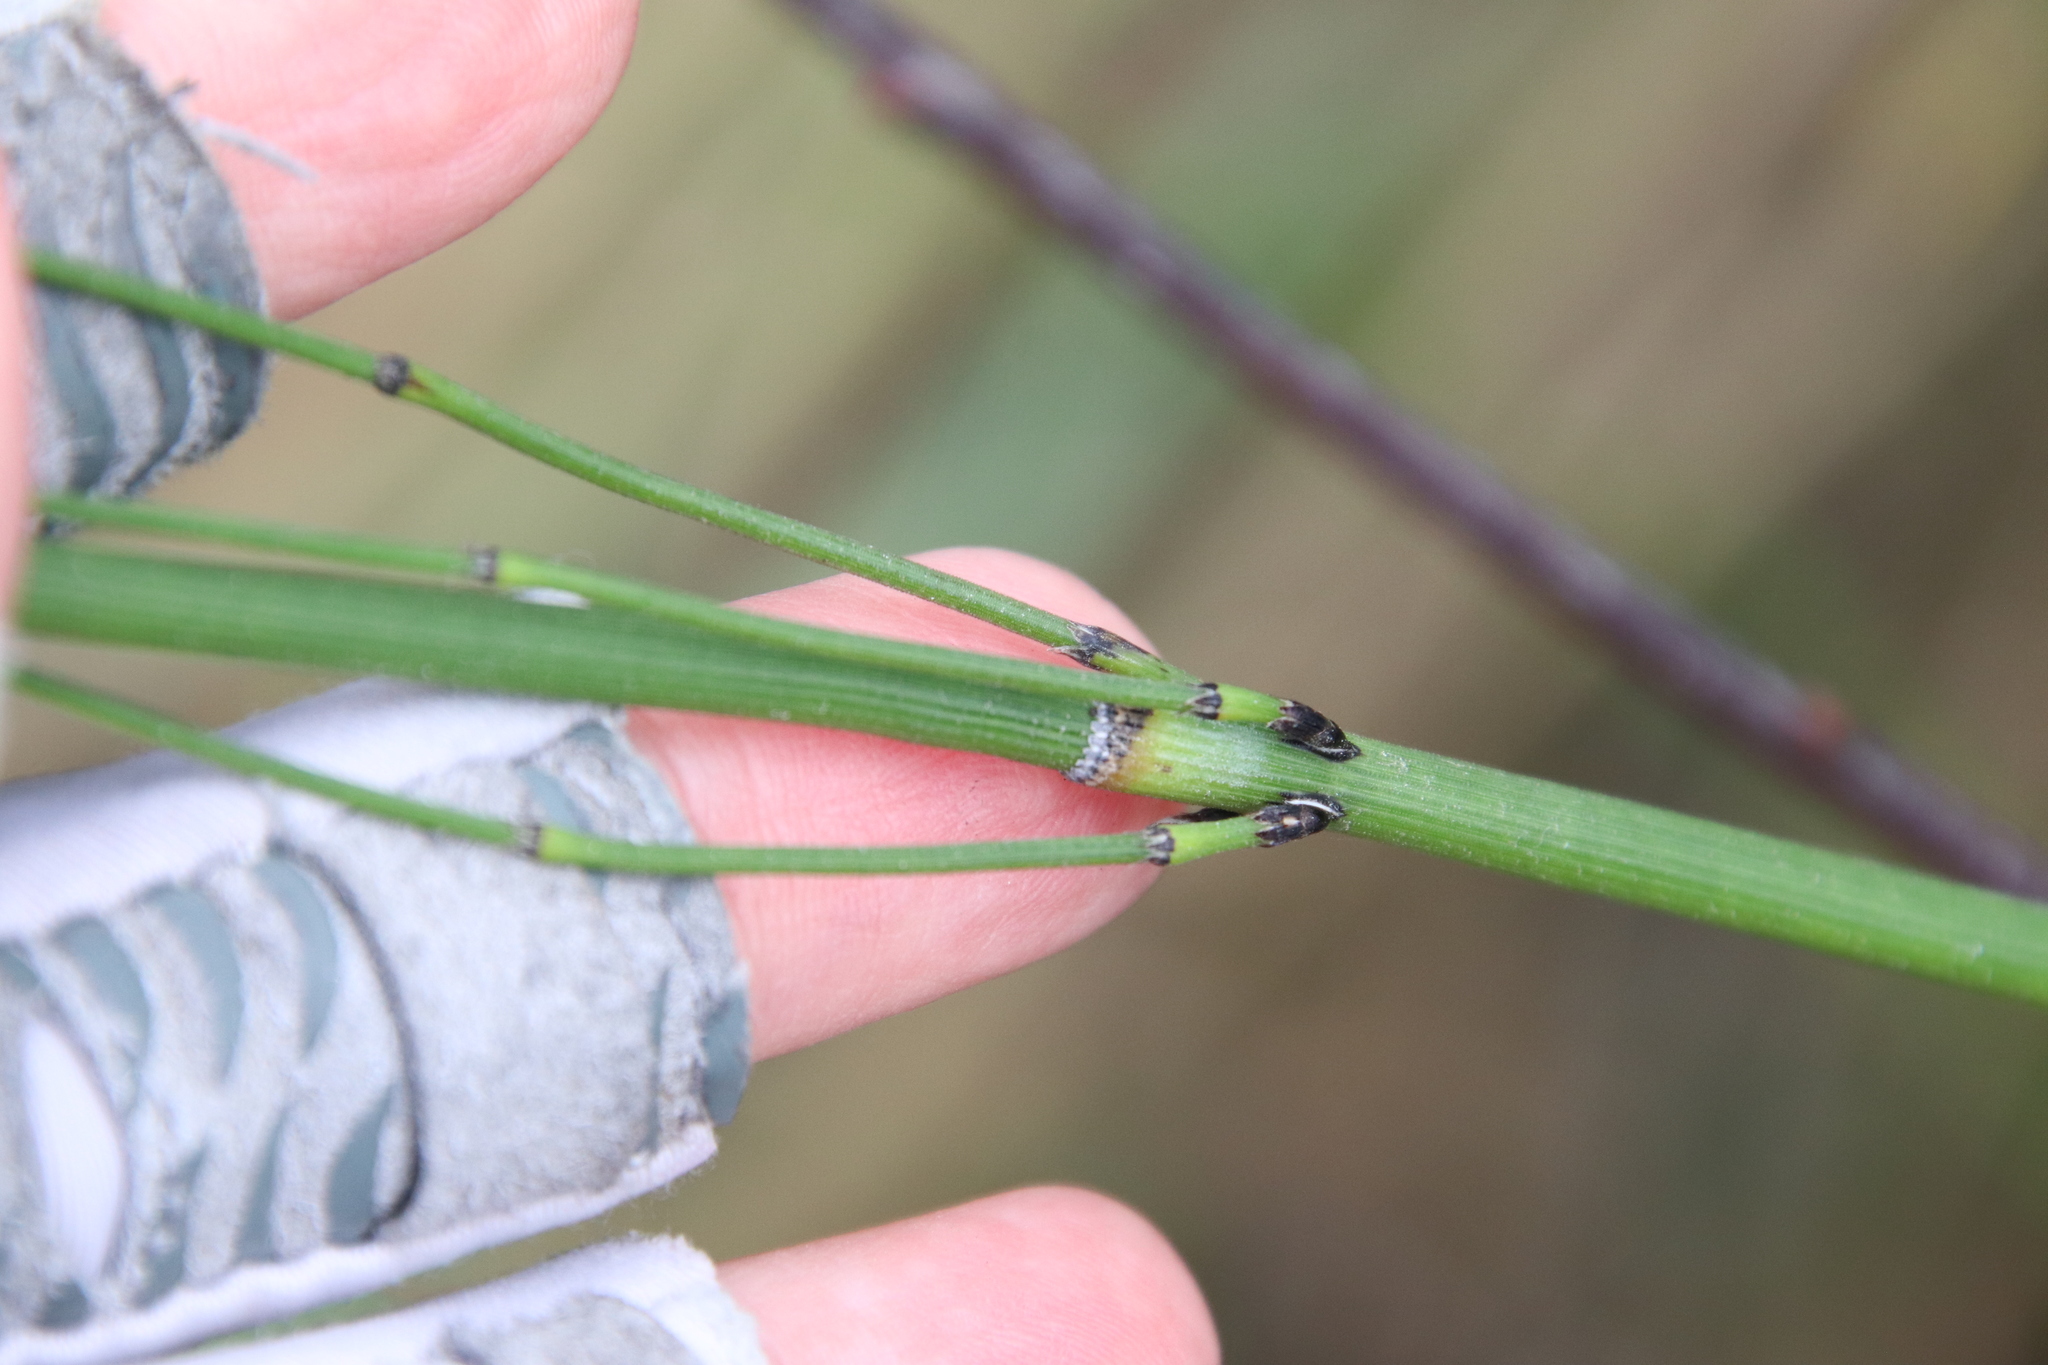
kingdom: Plantae
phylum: Tracheophyta
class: Polypodiopsida
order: Equisetales
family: Equisetaceae
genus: Equisetum
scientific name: Equisetum laevigatum
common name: Smooth scouring-rush
